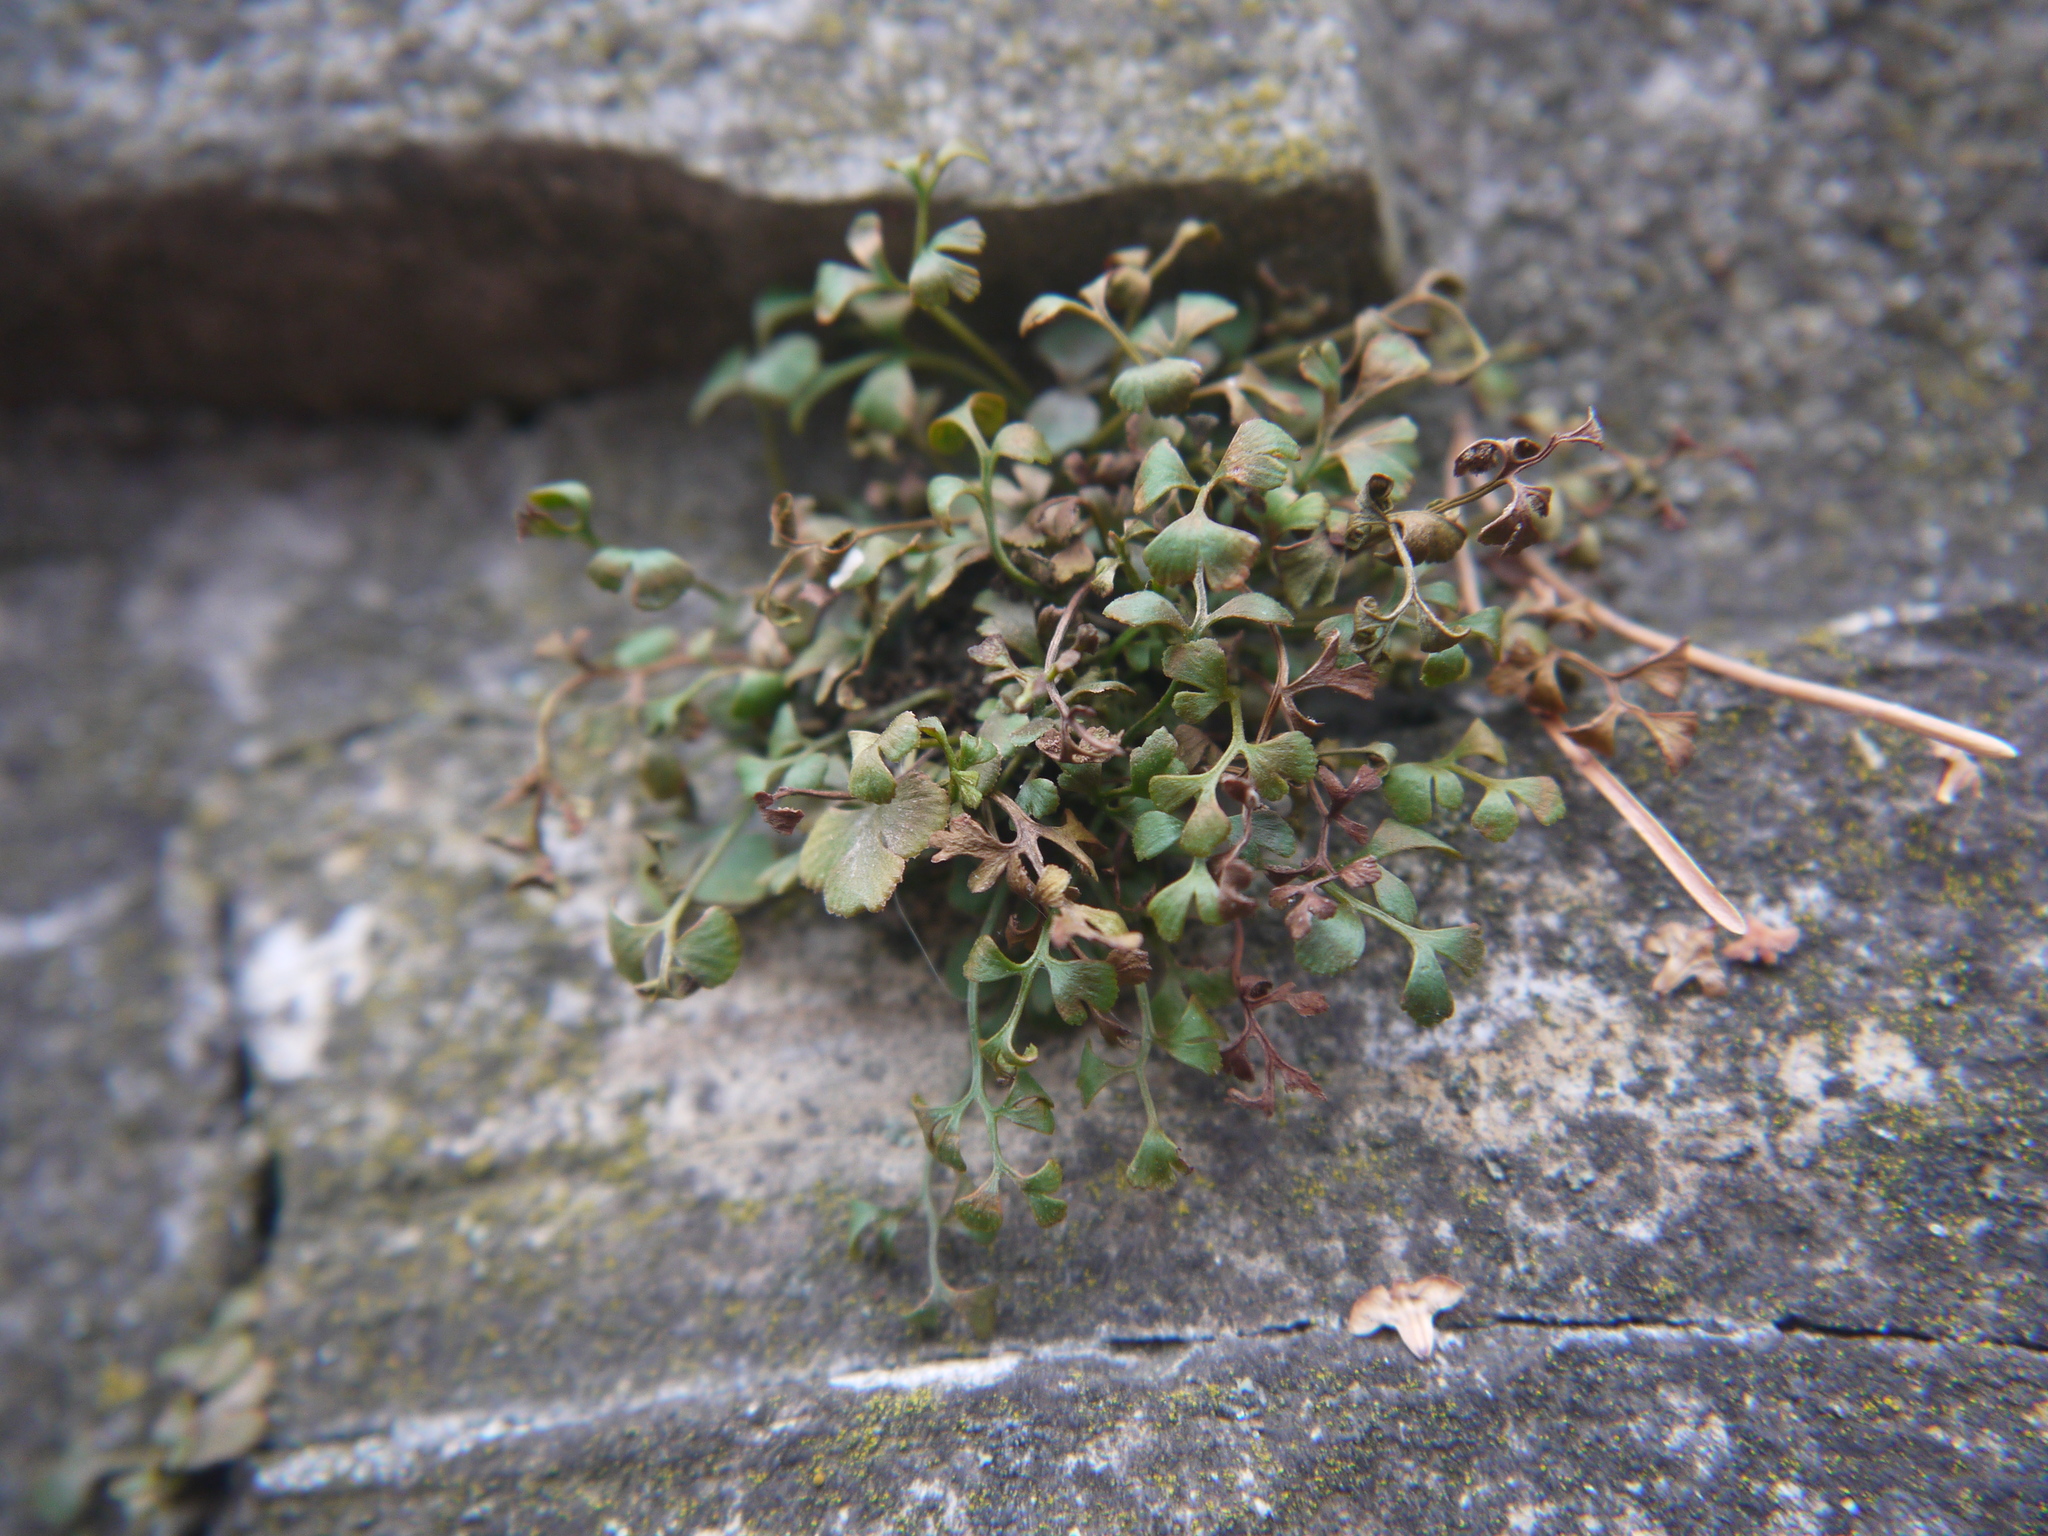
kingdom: Plantae
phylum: Tracheophyta
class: Polypodiopsida
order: Polypodiales
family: Aspleniaceae
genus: Asplenium
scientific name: Asplenium ruta-muraria
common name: Wall-rue
